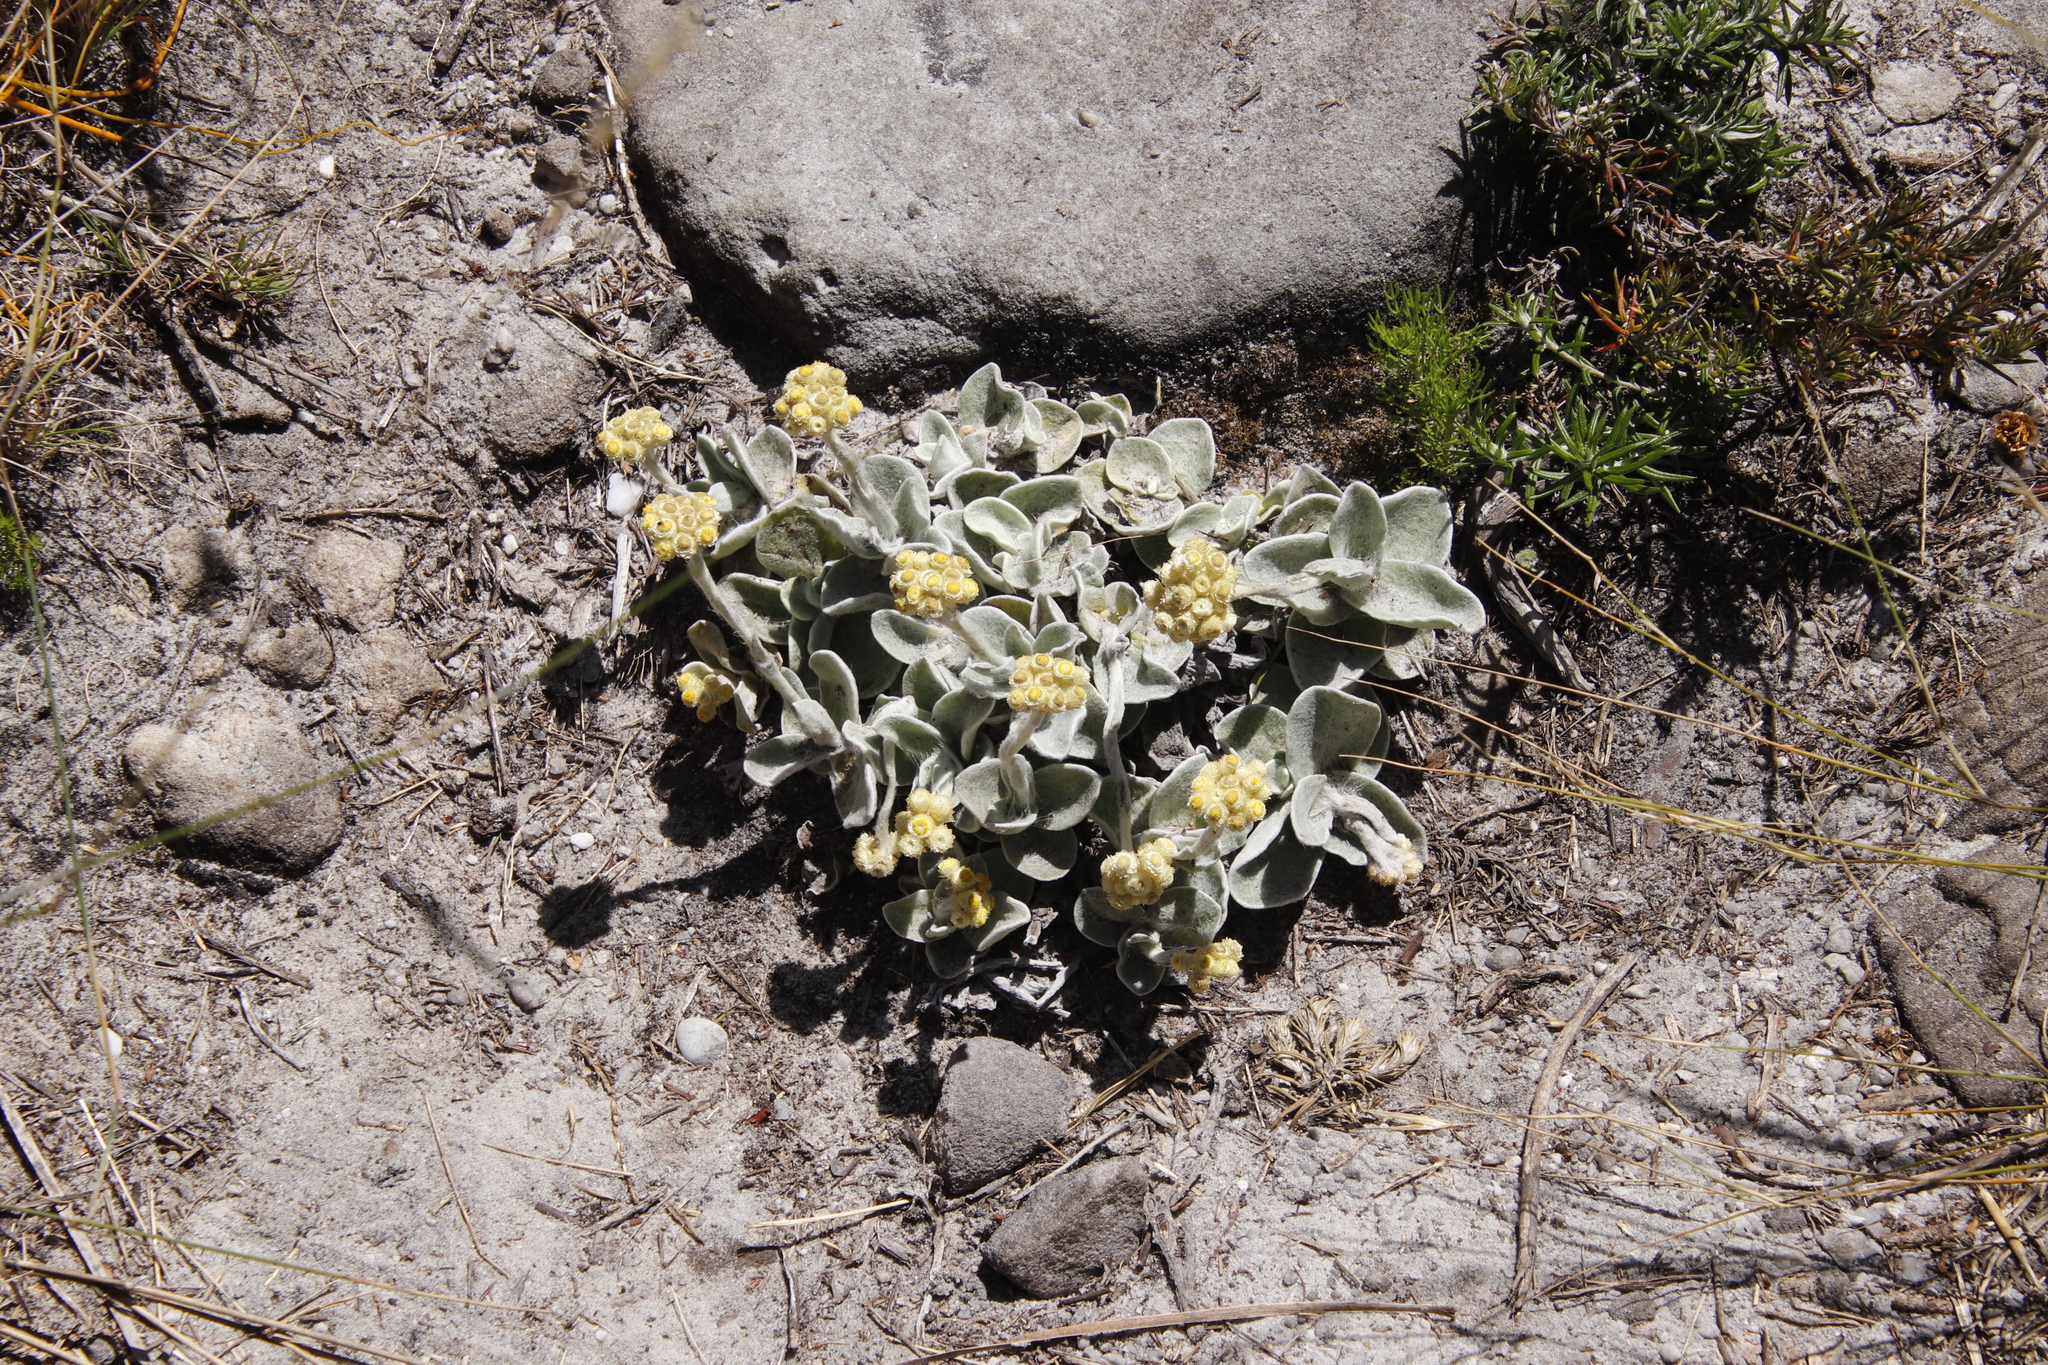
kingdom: Plantae
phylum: Tracheophyta
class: Magnoliopsida
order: Asterales
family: Asteraceae
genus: Helichrysum
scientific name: Helichrysum grandiflorum
